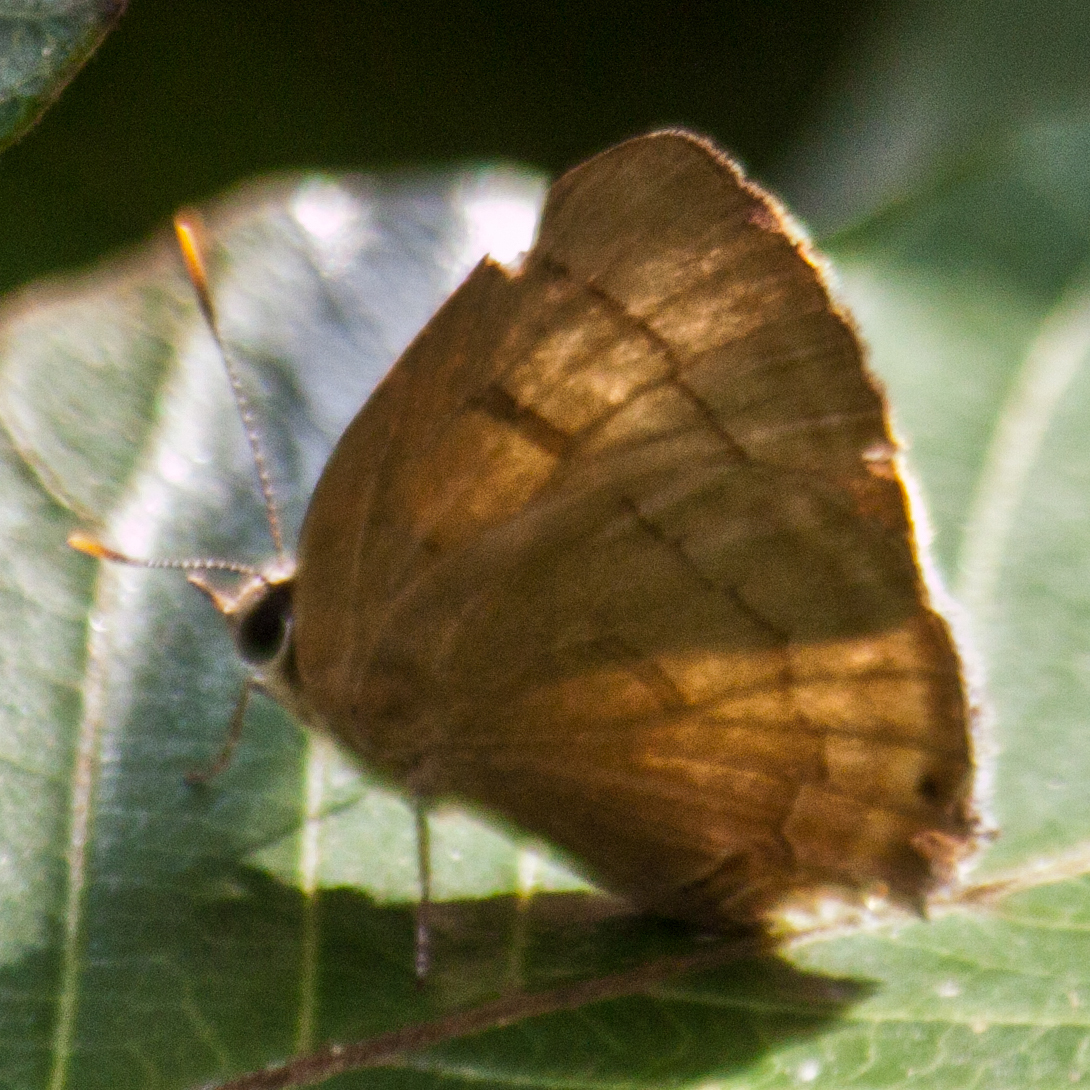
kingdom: Animalia
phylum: Arthropoda
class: Insecta
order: Lepidoptera
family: Lycaenidae
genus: Rapala
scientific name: Rapala pheretima
